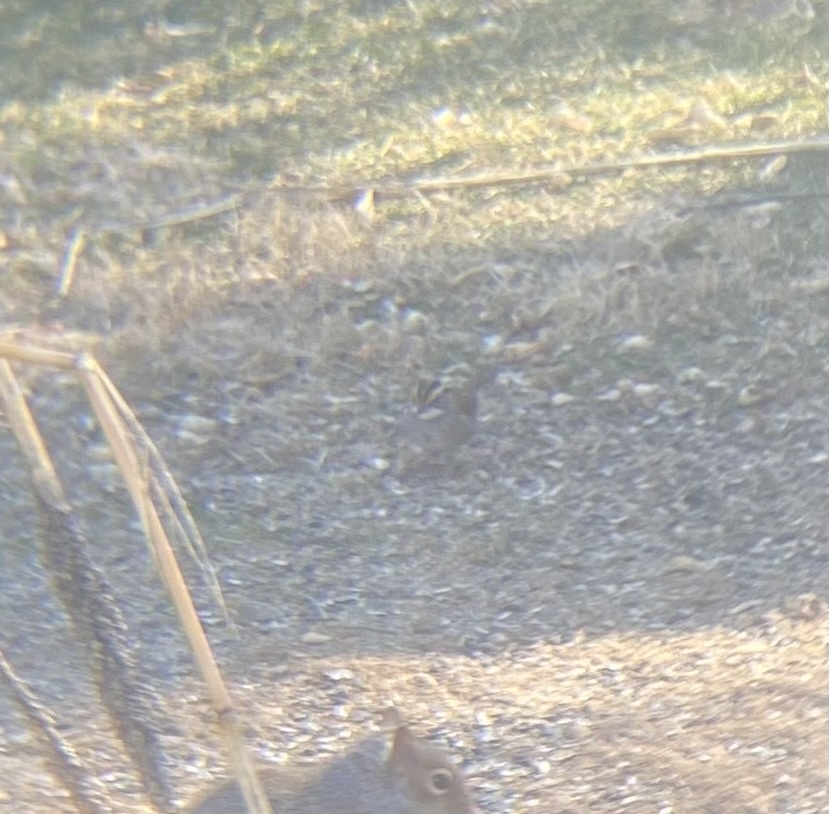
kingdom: Animalia
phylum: Chordata
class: Aves
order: Passeriformes
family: Passerellidae
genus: Zonotrichia
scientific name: Zonotrichia albicollis
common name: White-throated sparrow
